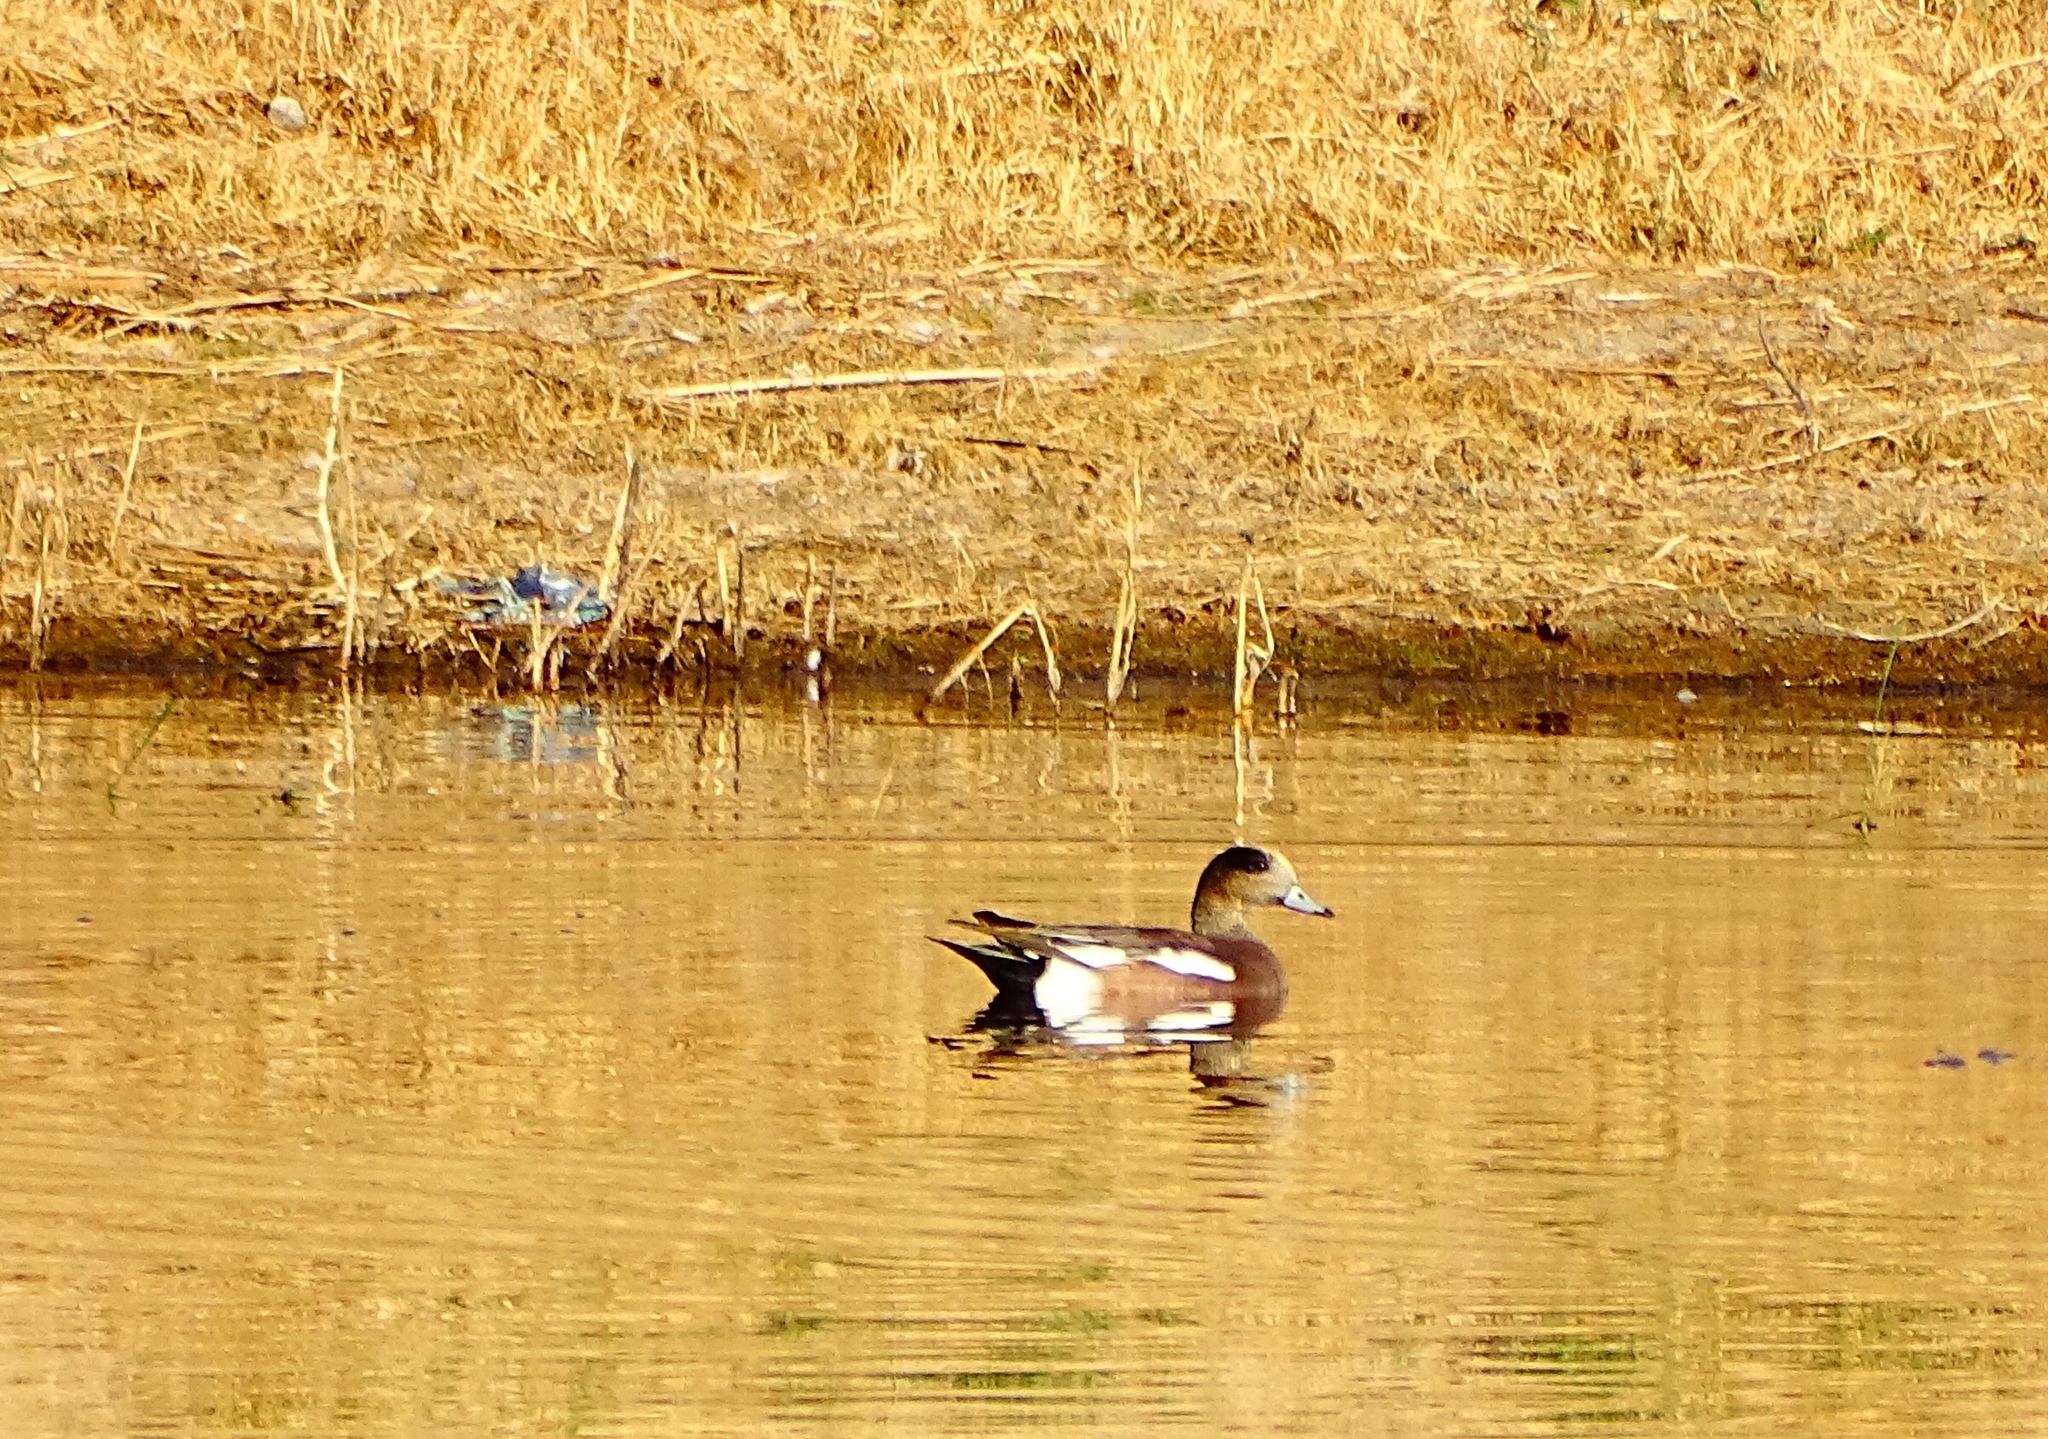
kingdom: Animalia
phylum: Chordata
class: Aves
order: Anseriformes
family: Anatidae
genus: Mareca
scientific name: Mareca americana
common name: American wigeon
